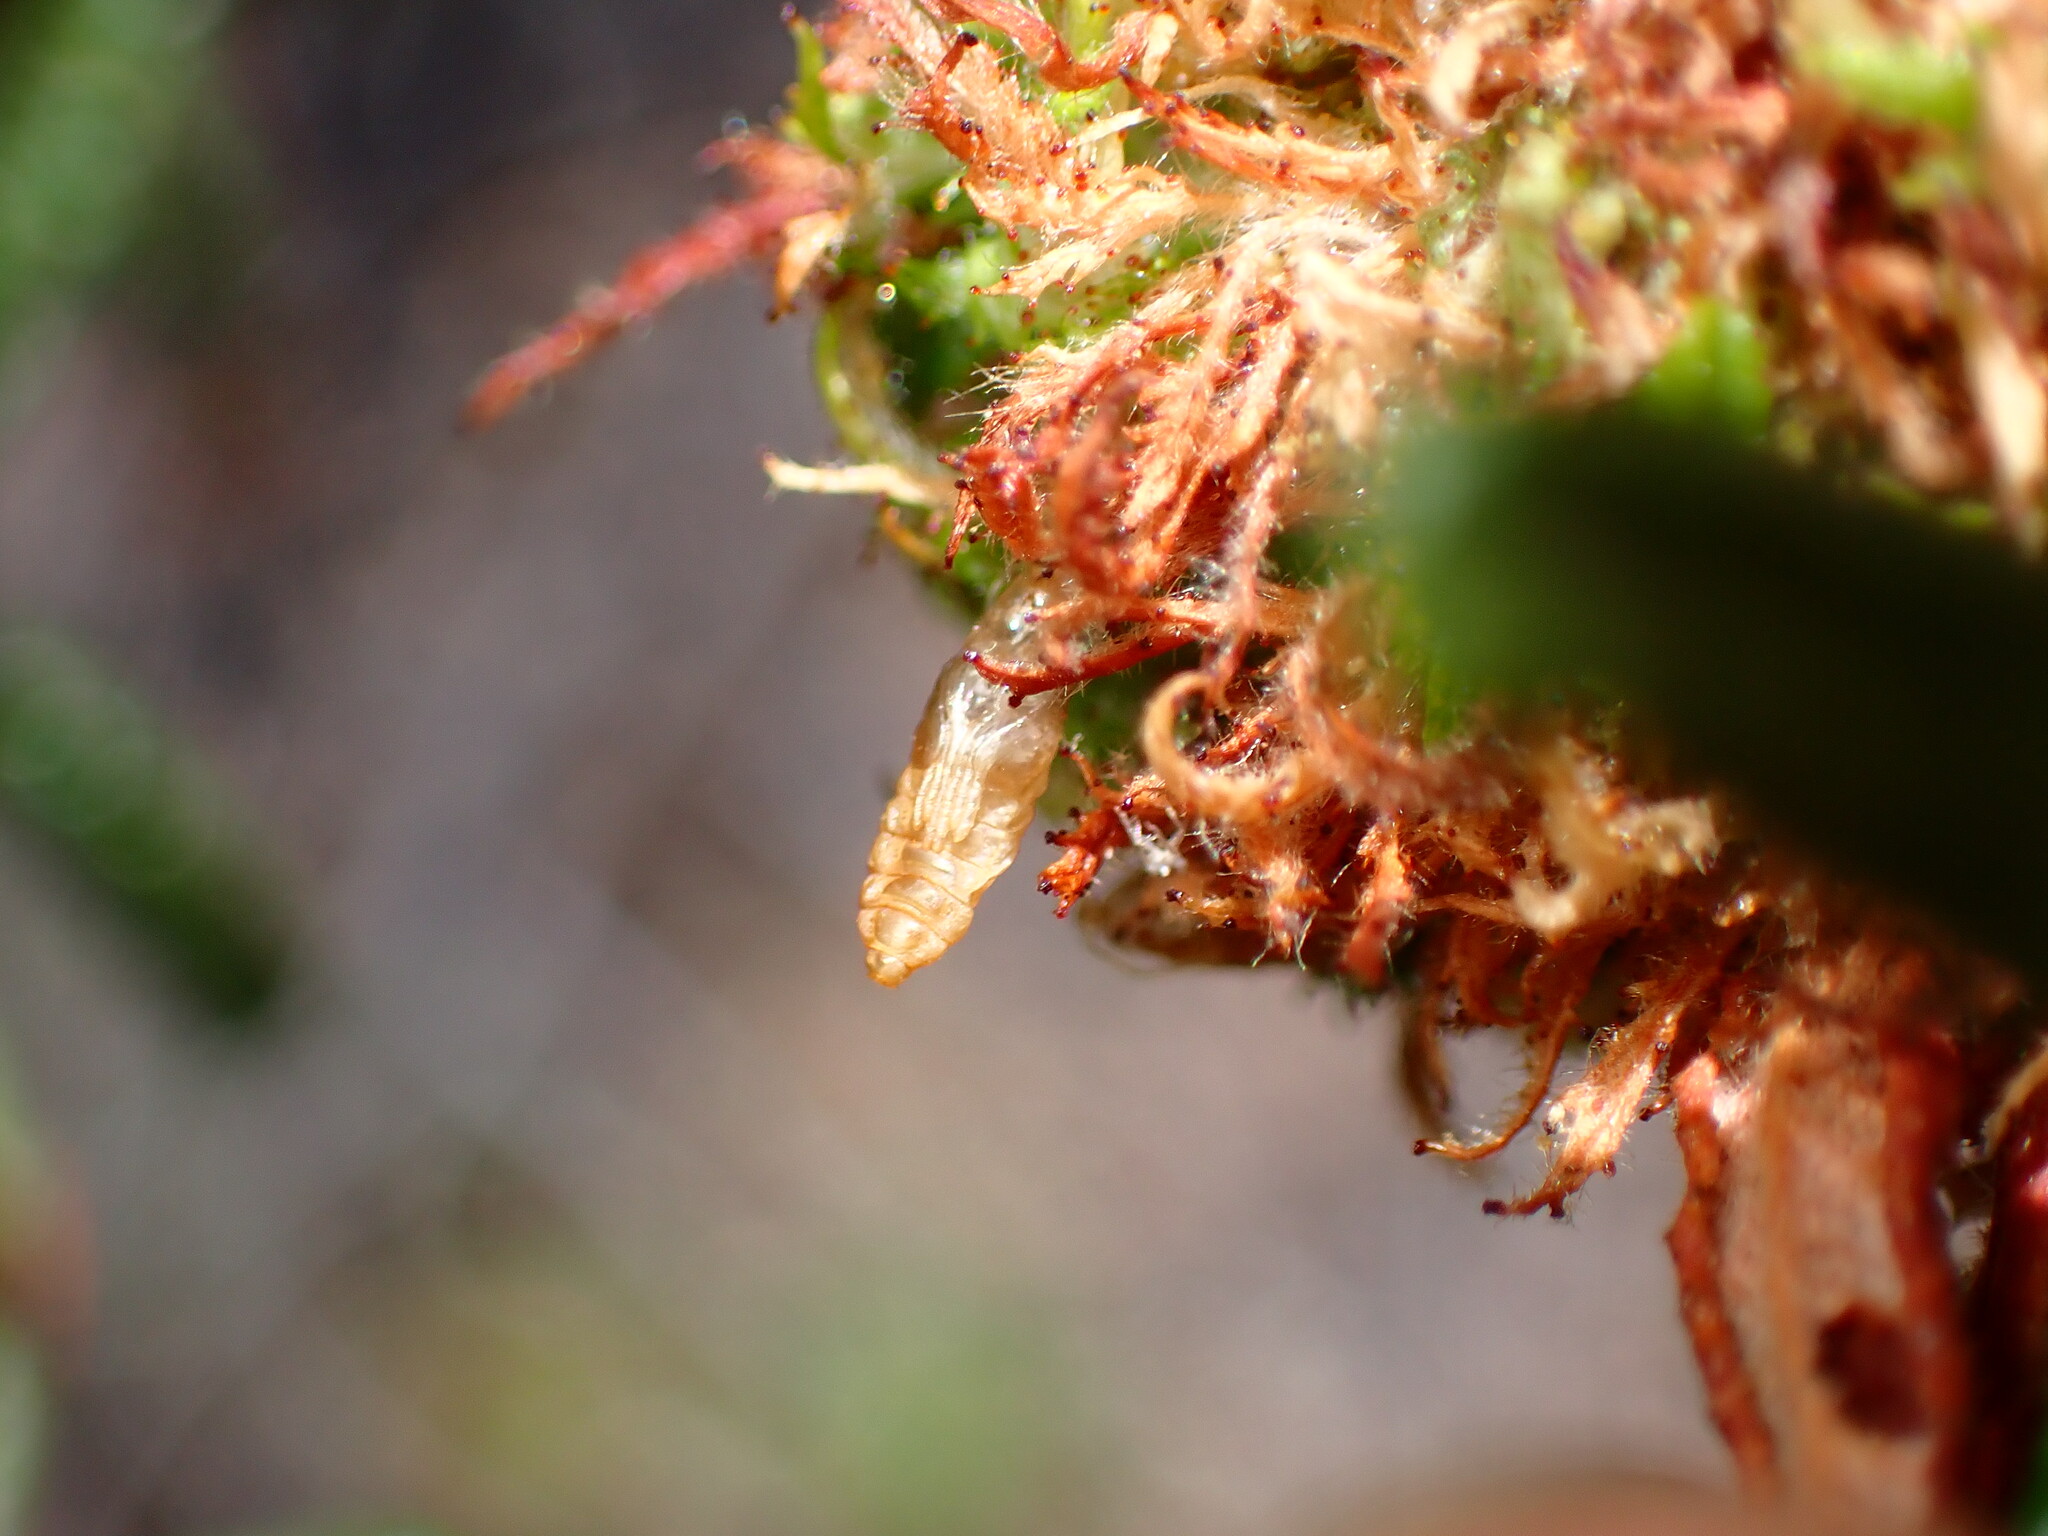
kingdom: Animalia
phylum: Arthropoda
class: Insecta
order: Diptera
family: Cecidomyiidae
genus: Asphondylia
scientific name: Asphondylia ceanothi
